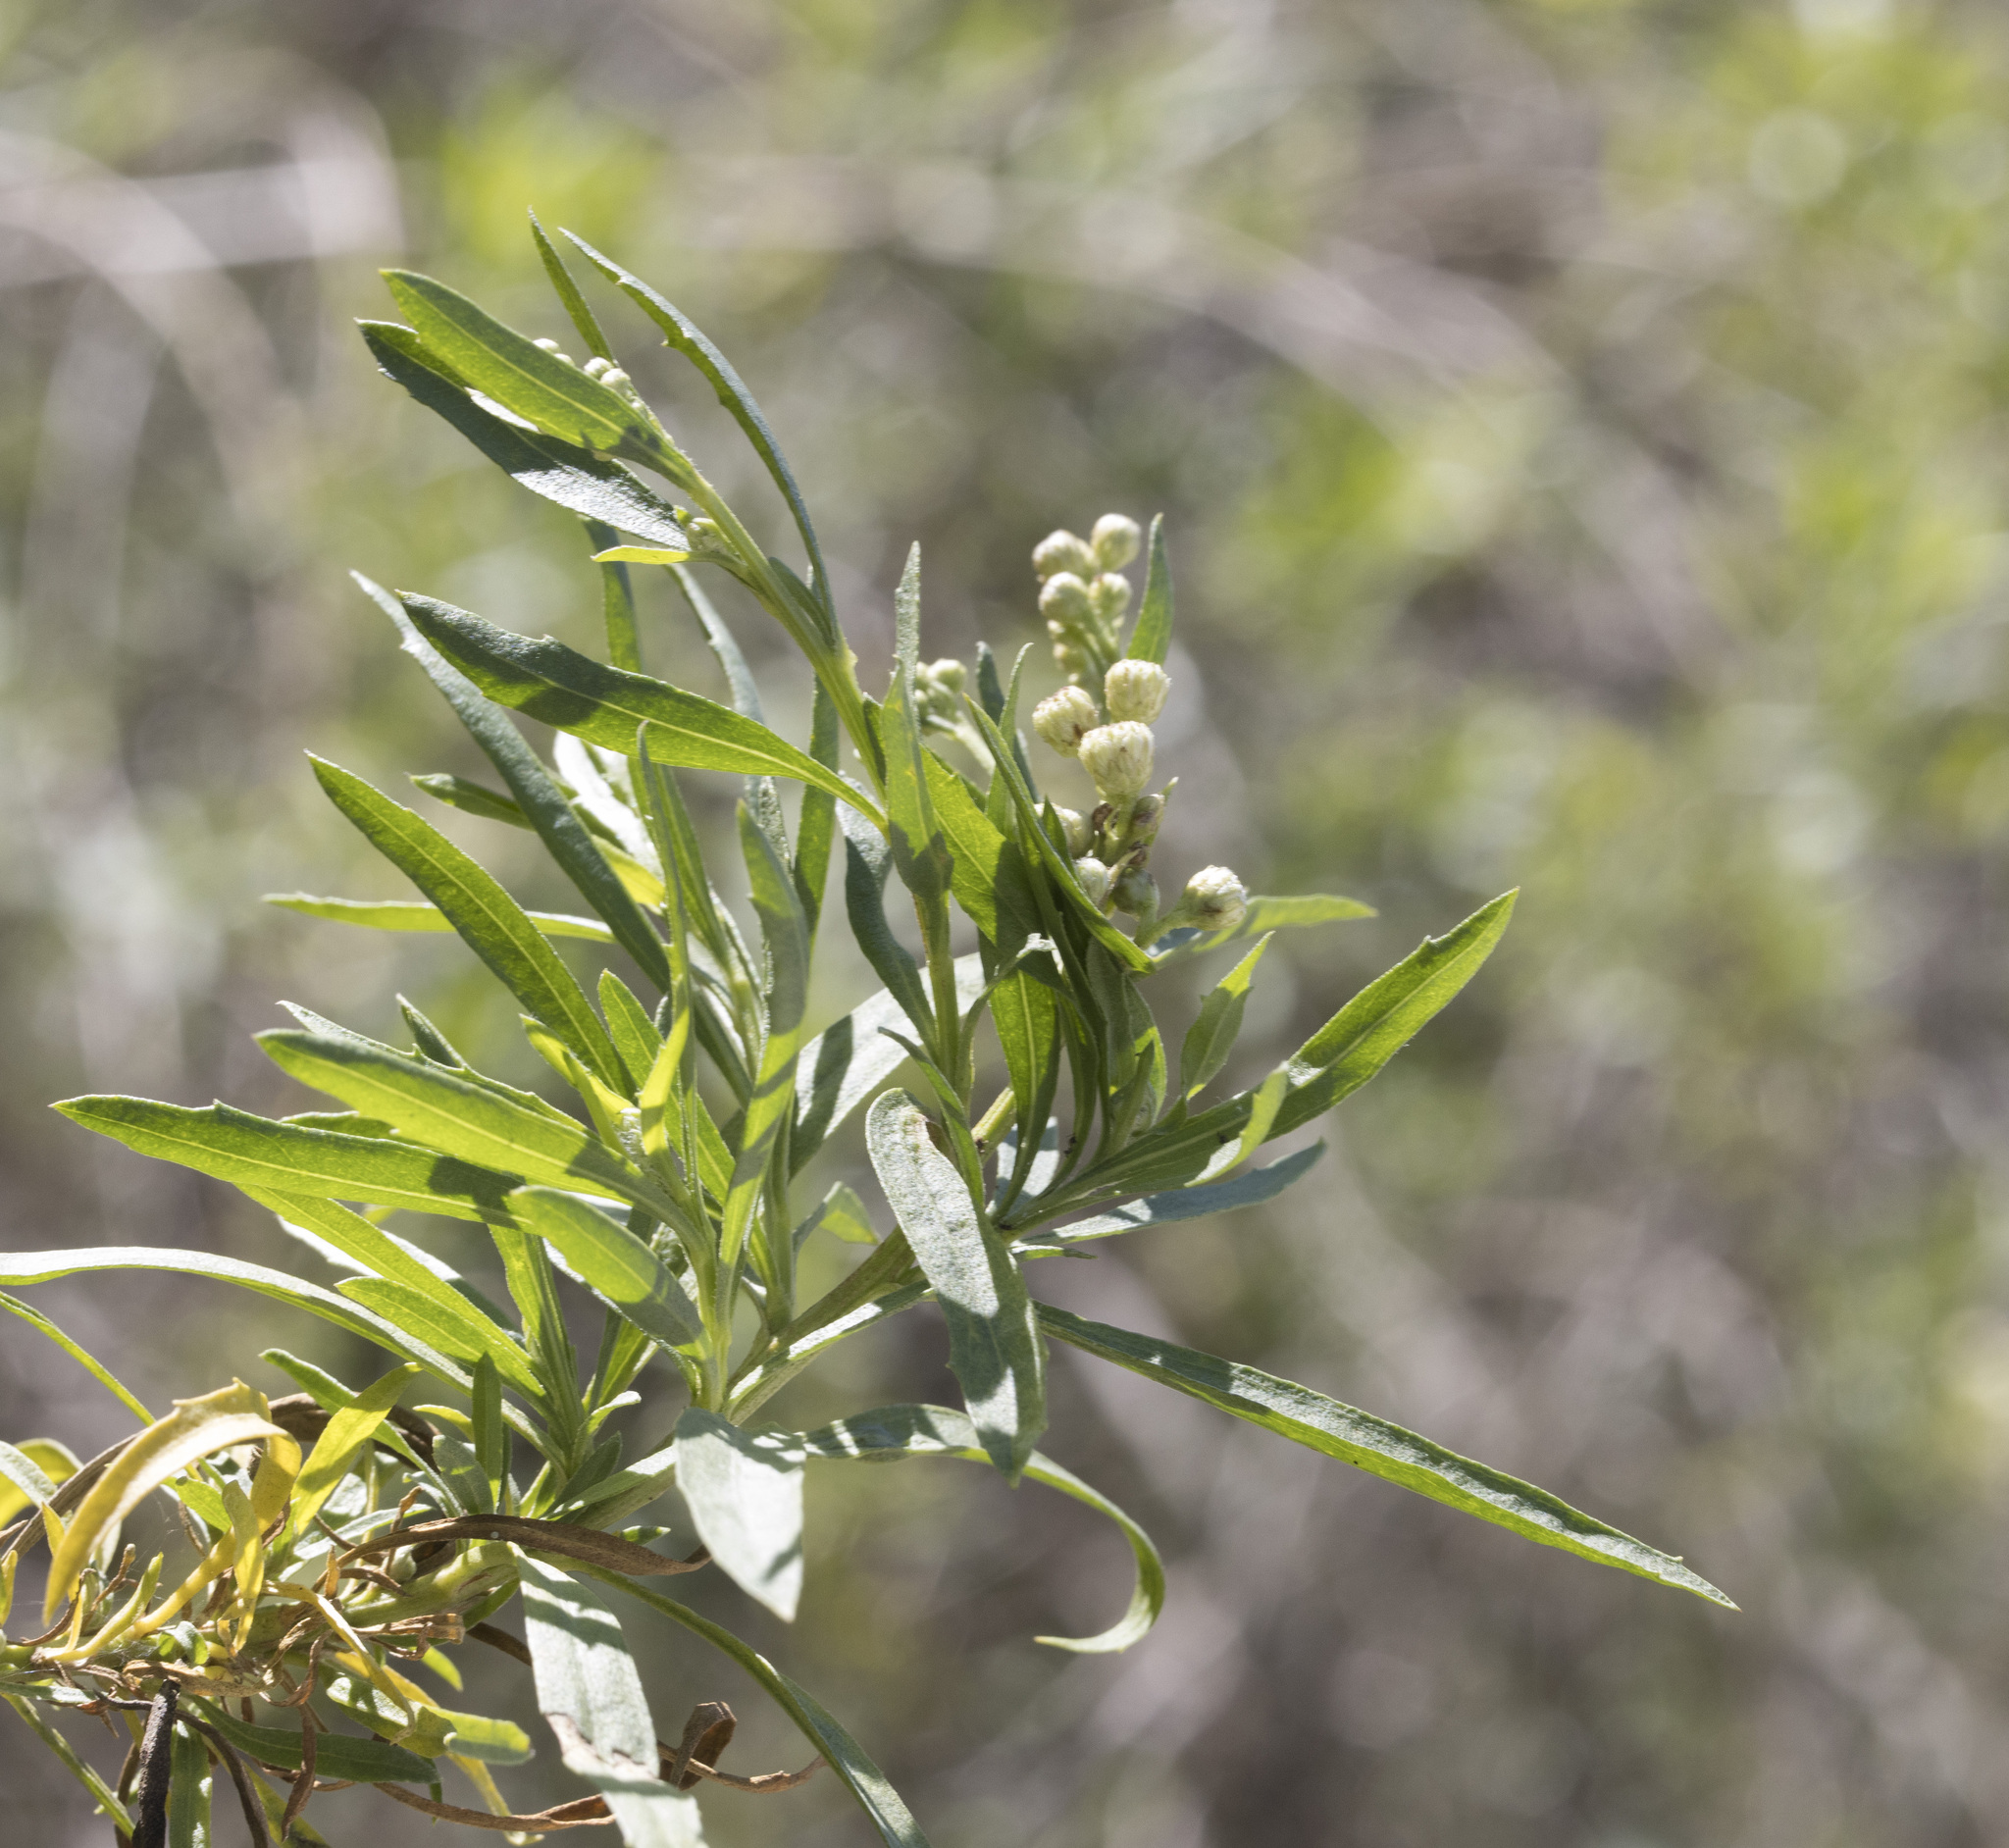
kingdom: Plantae
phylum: Tracheophyta
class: Magnoliopsida
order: Asterales
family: Asteraceae
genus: Baccharis
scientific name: Baccharis salicifolia
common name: Sticky baccharis
